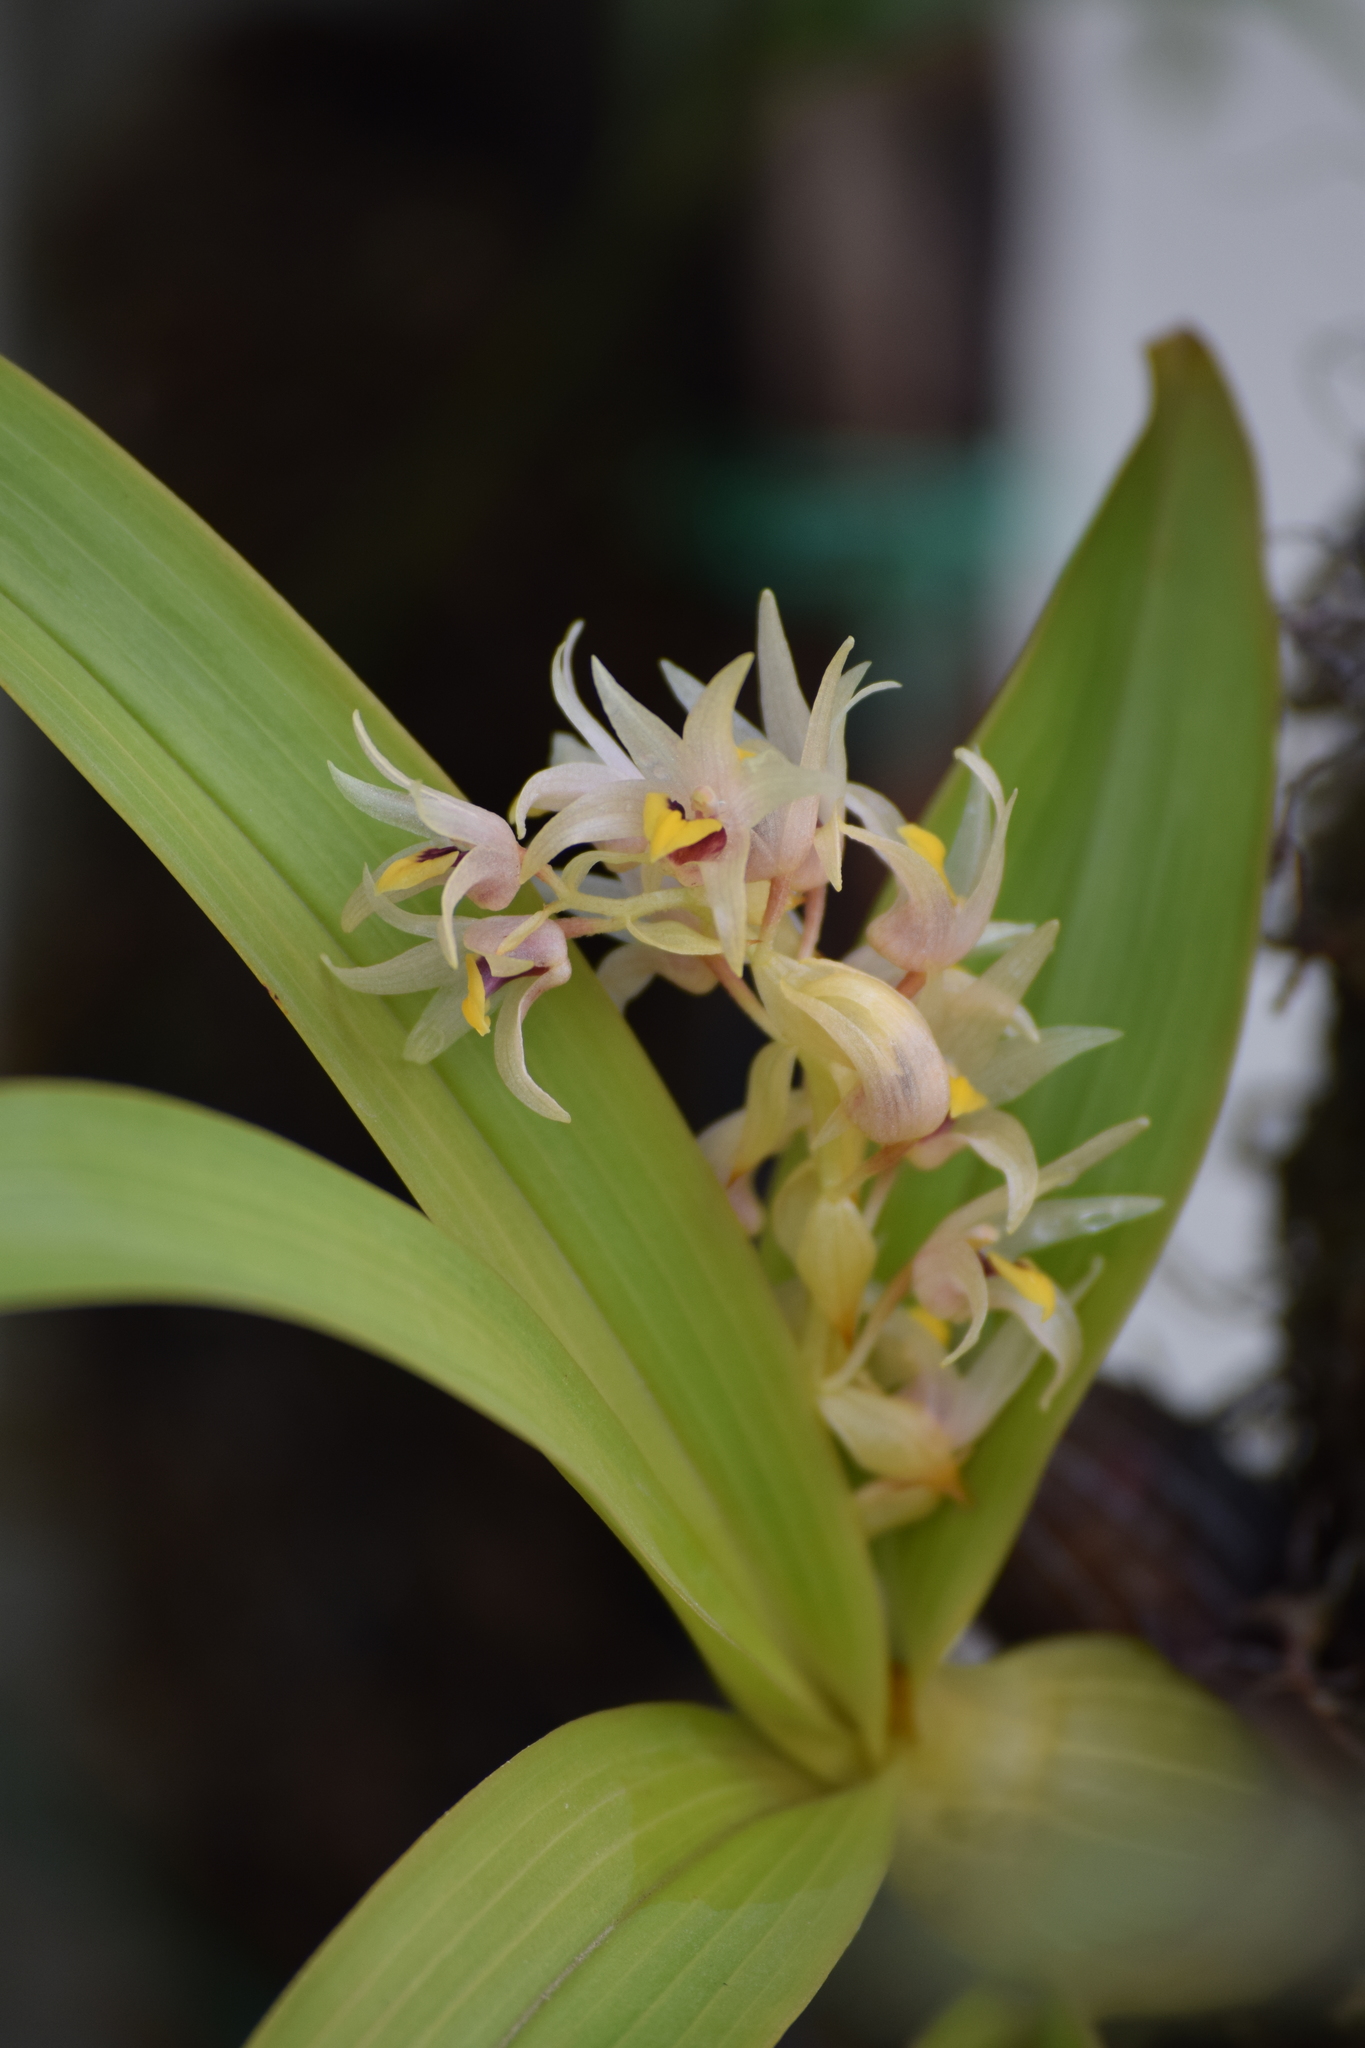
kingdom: Plantae
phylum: Tracheophyta
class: Liliopsida
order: Asparagales
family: Orchidaceae
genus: Pinalia
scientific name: Pinalia mysorensis
